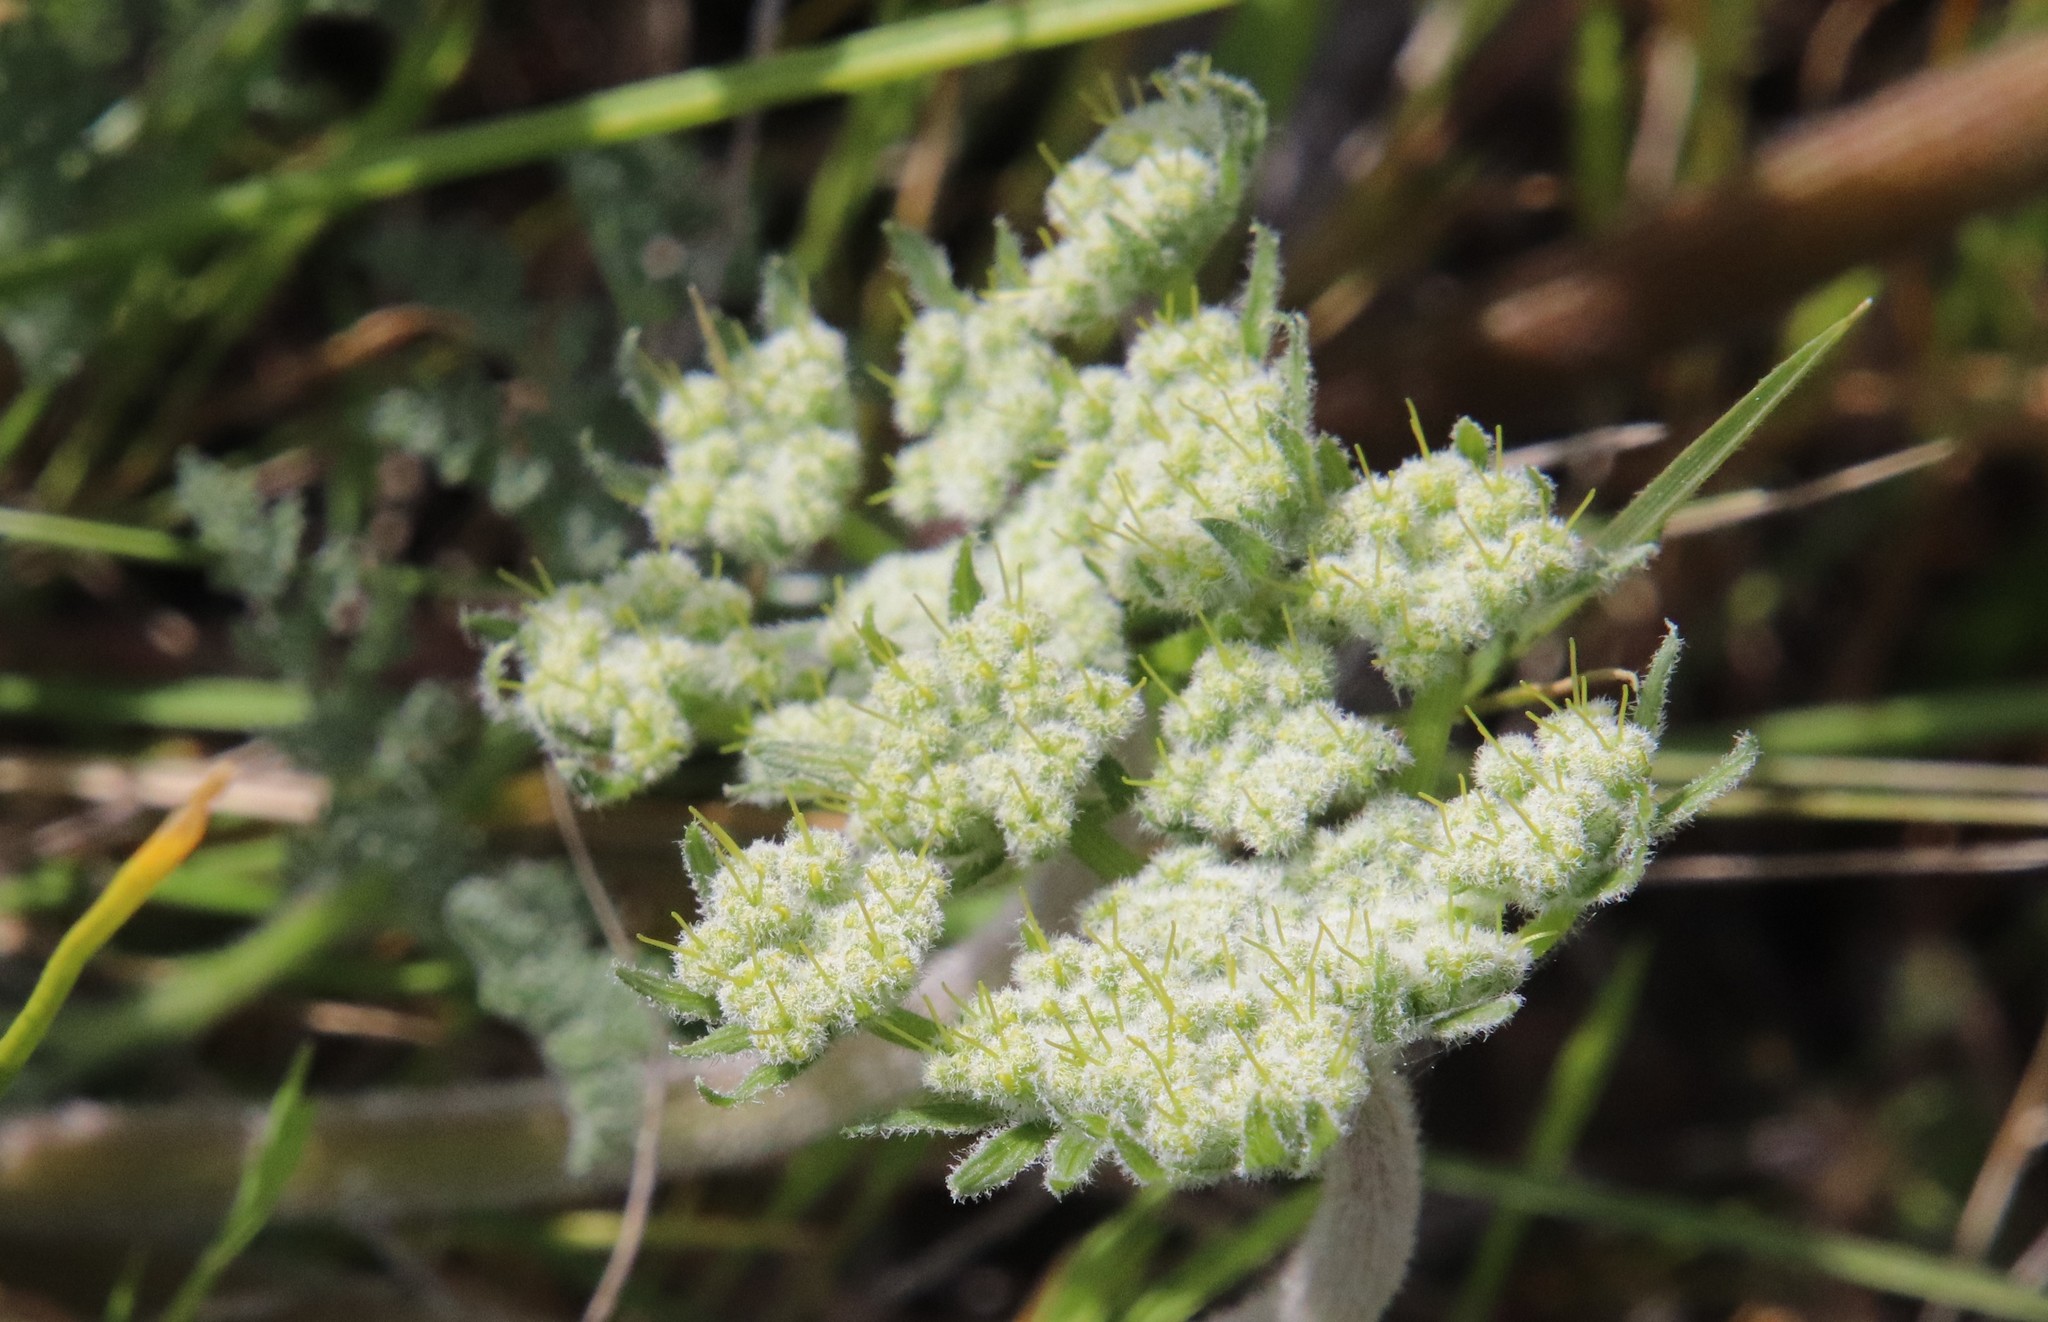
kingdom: Plantae
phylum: Tracheophyta
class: Magnoliopsida
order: Apiales
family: Apiaceae
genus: Lomatium
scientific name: Lomatium dasycarpum
